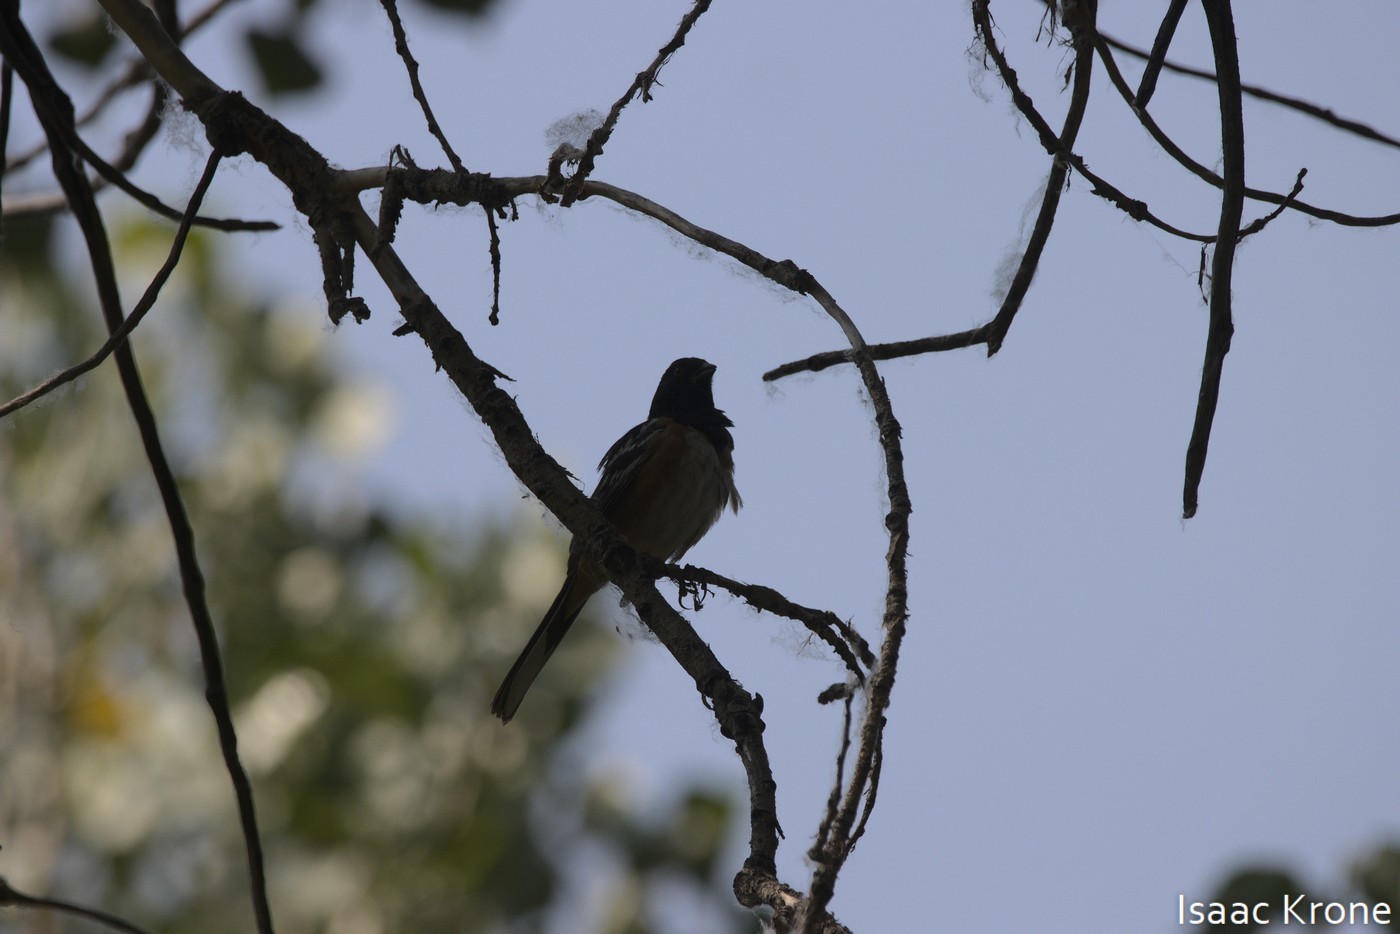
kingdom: Animalia
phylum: Chordata
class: Aves
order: Passeriformes
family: Passerellidae
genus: Pipilo
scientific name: Pipilo maculatus
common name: Spotted towhee
